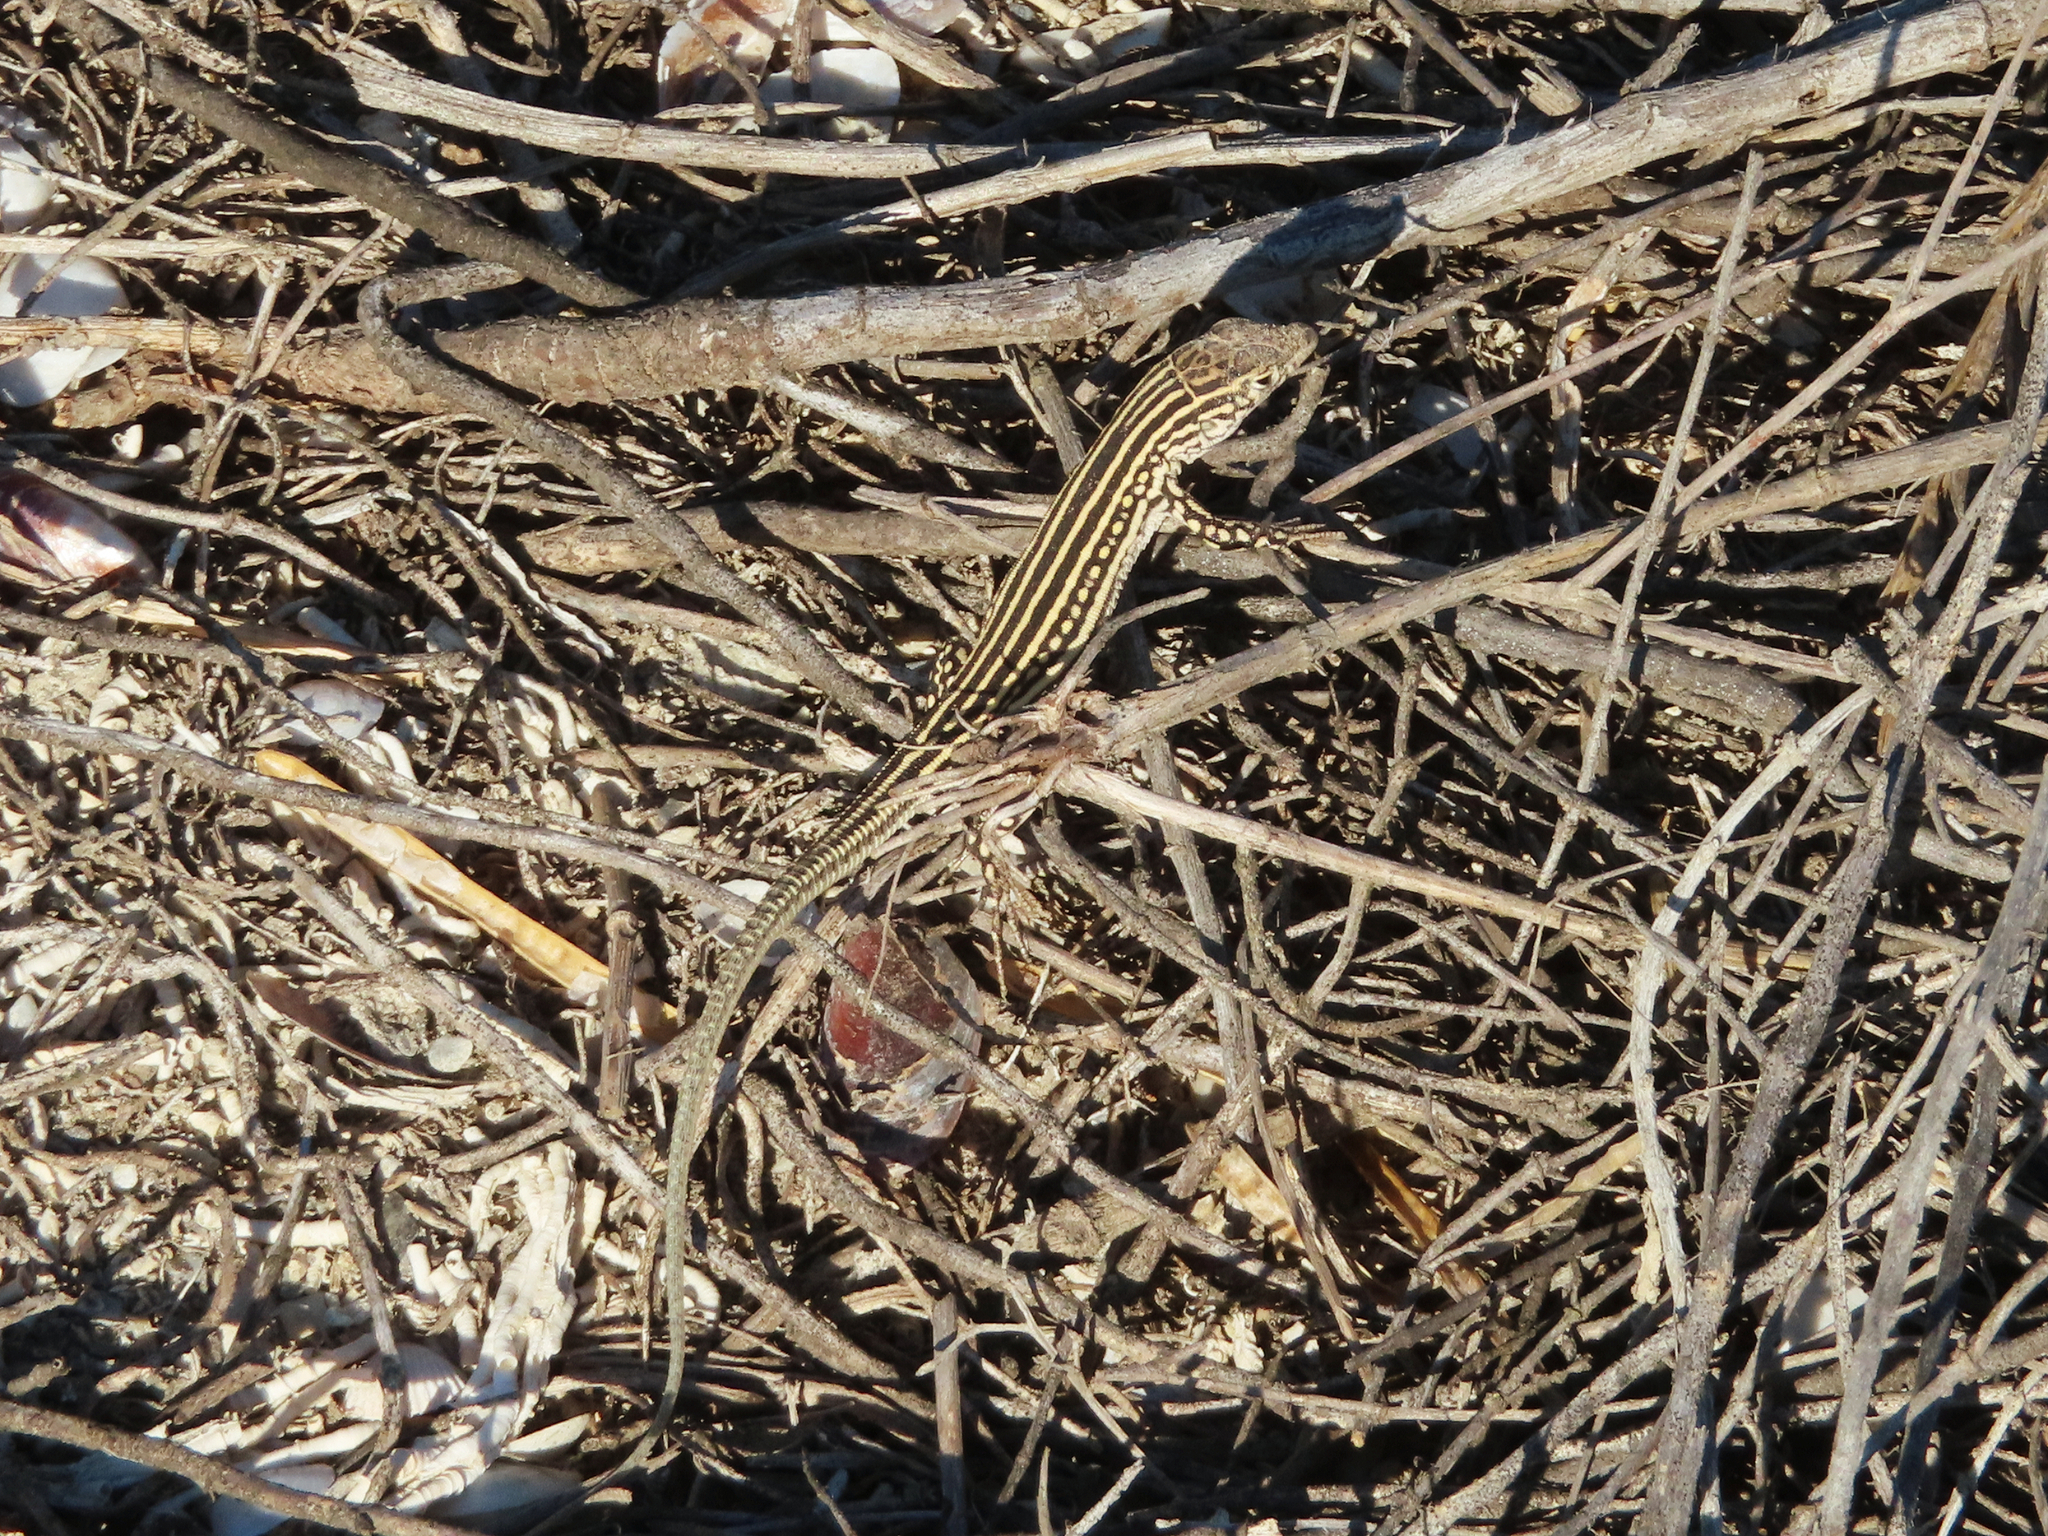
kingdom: Animalia
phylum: Chordata
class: Squamata
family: Lacertidae
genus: Eremias
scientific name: Eremias velox
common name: Central asian racerunner
